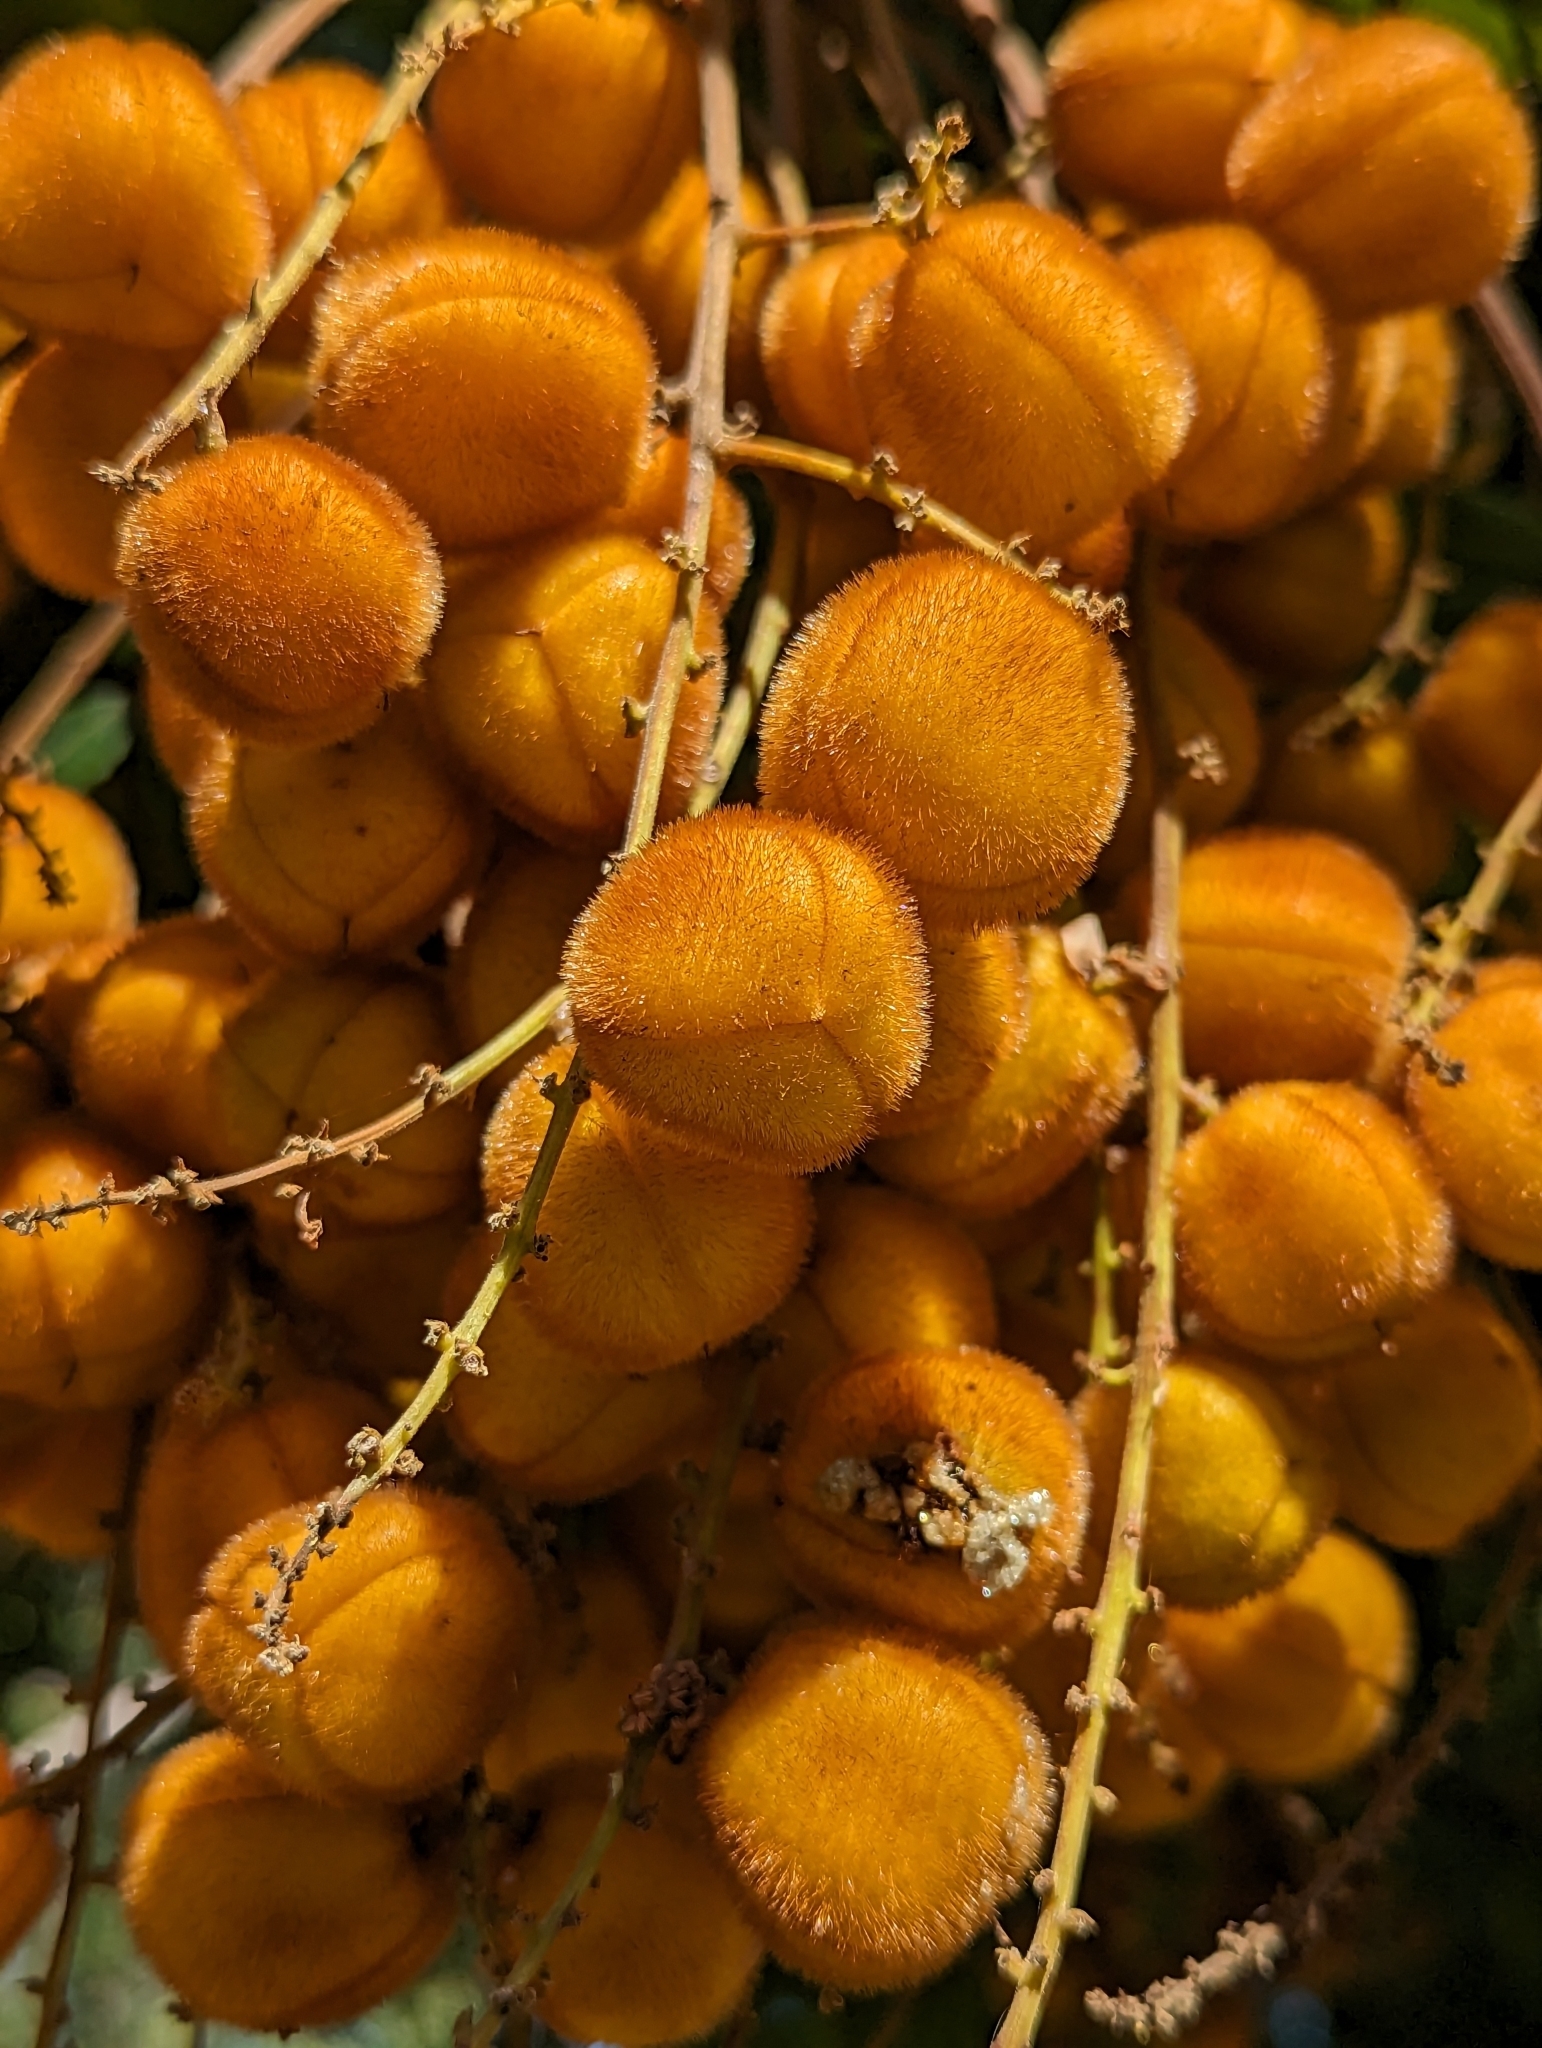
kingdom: Plantae
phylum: Tracheophyta
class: Magnoliopsida
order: Sapindales
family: Sapindaceae
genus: Jagera
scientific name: Jagera pseudorhus
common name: Fern-leaf-tamarind
